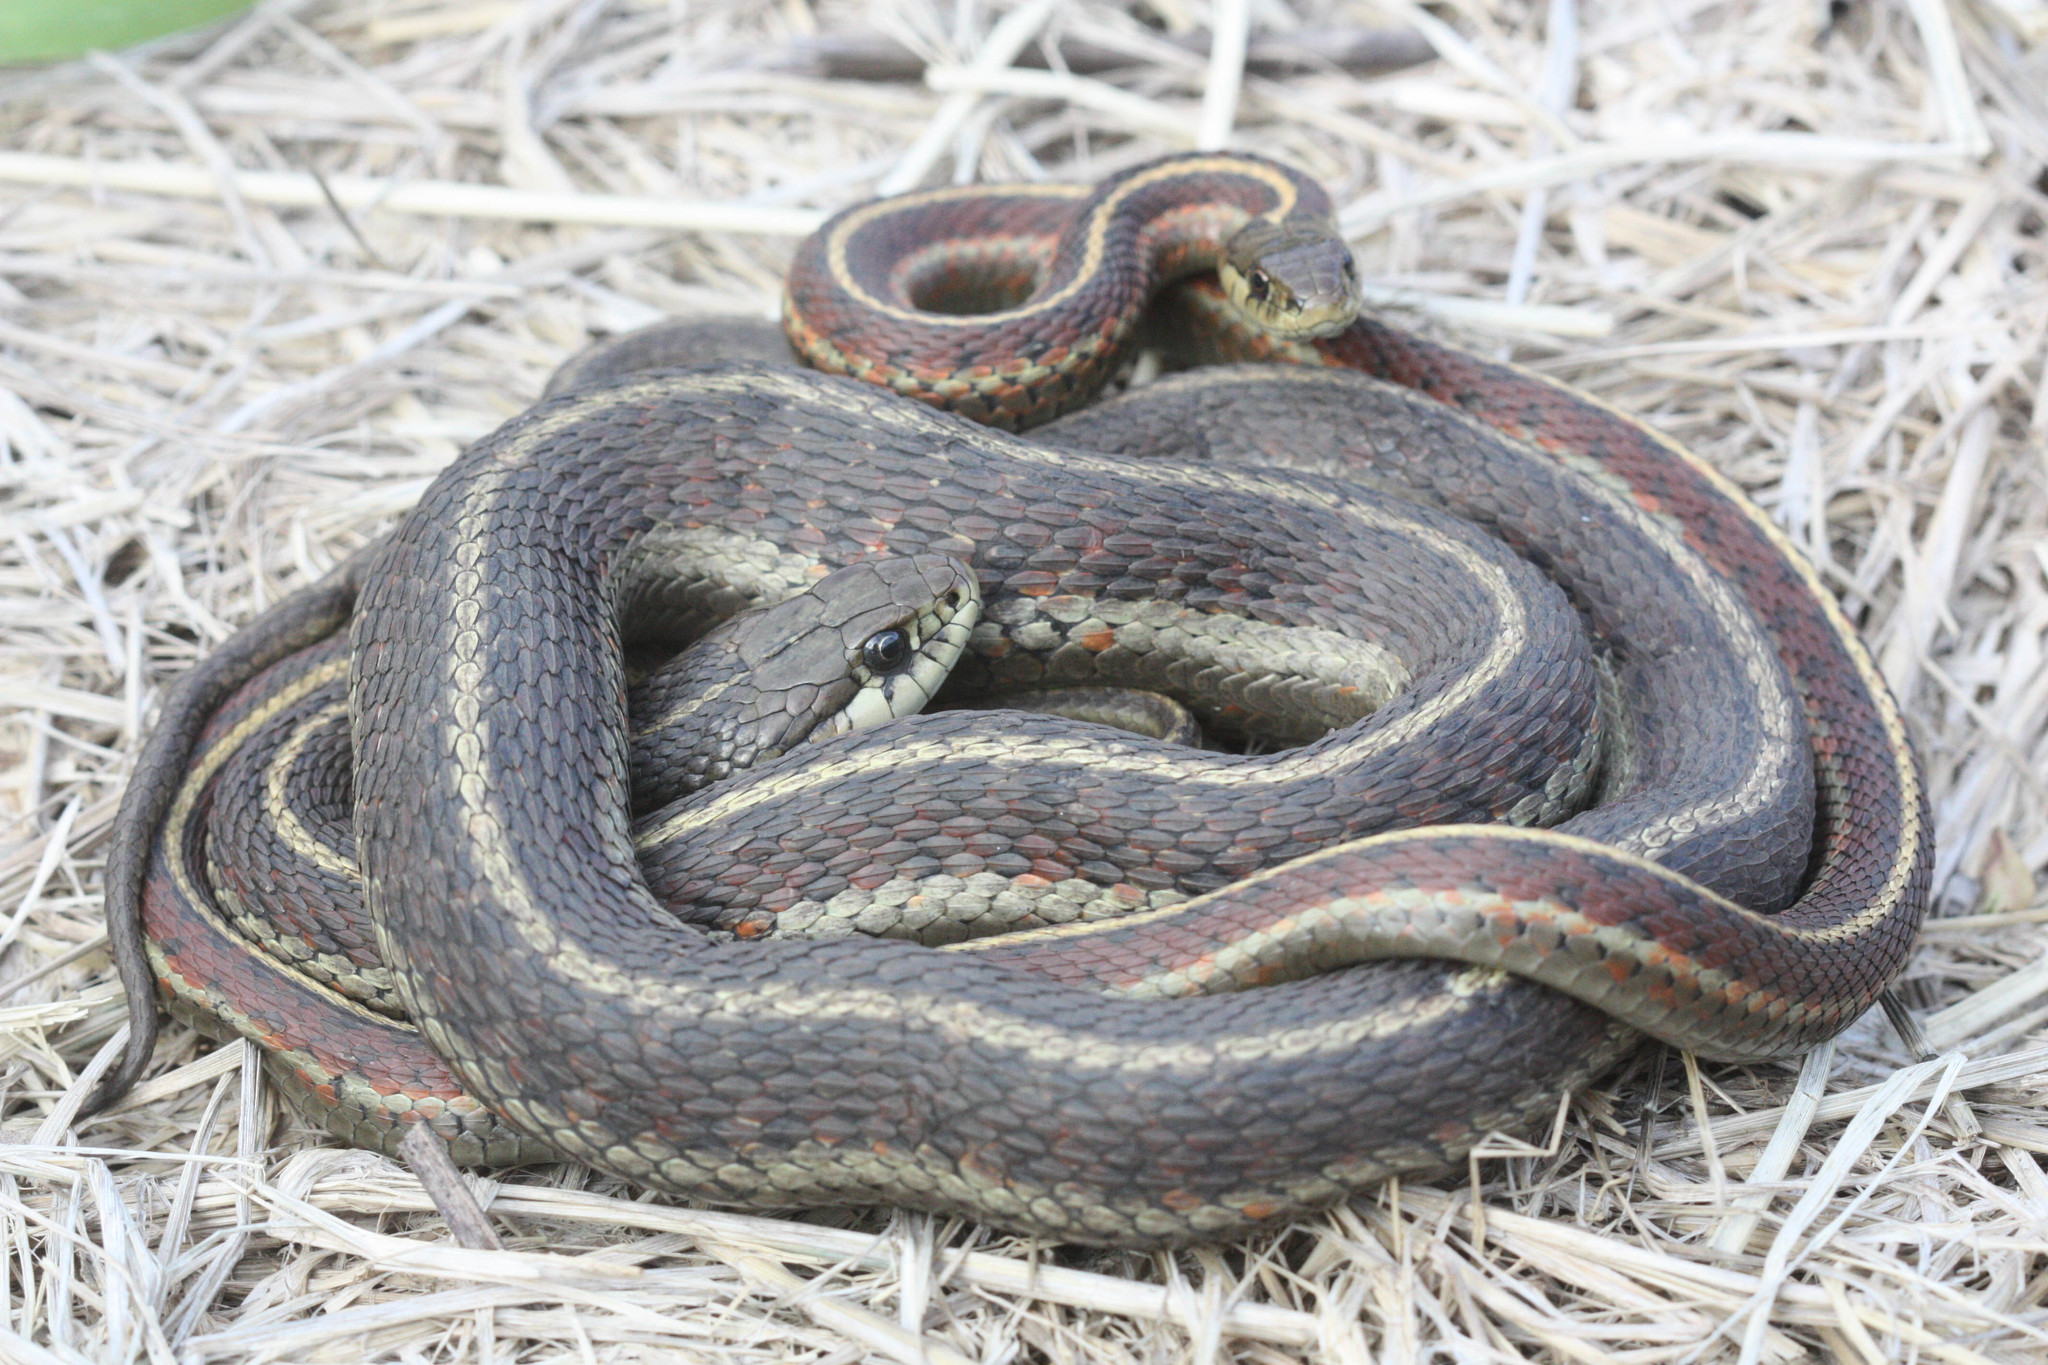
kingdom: Animalia
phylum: Chordata
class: Squamata
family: Colubridae
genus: Thamnophis
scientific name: Thamnophis elegans
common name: Western terrestrial garter snake
